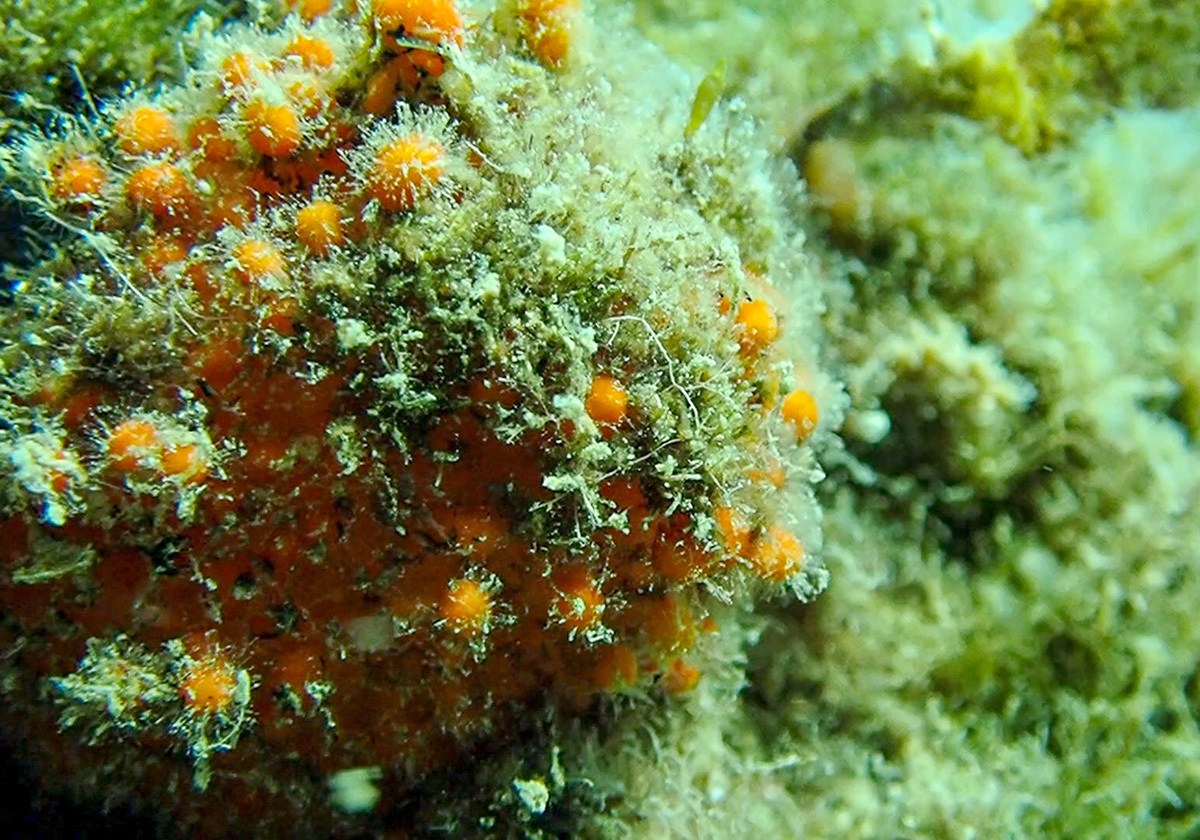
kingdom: Animalia
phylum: Porifera
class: Demospongiae
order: Tethyida
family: Tethyidae
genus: Tethya
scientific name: Tethya aurantium
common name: Golf ball sponge
